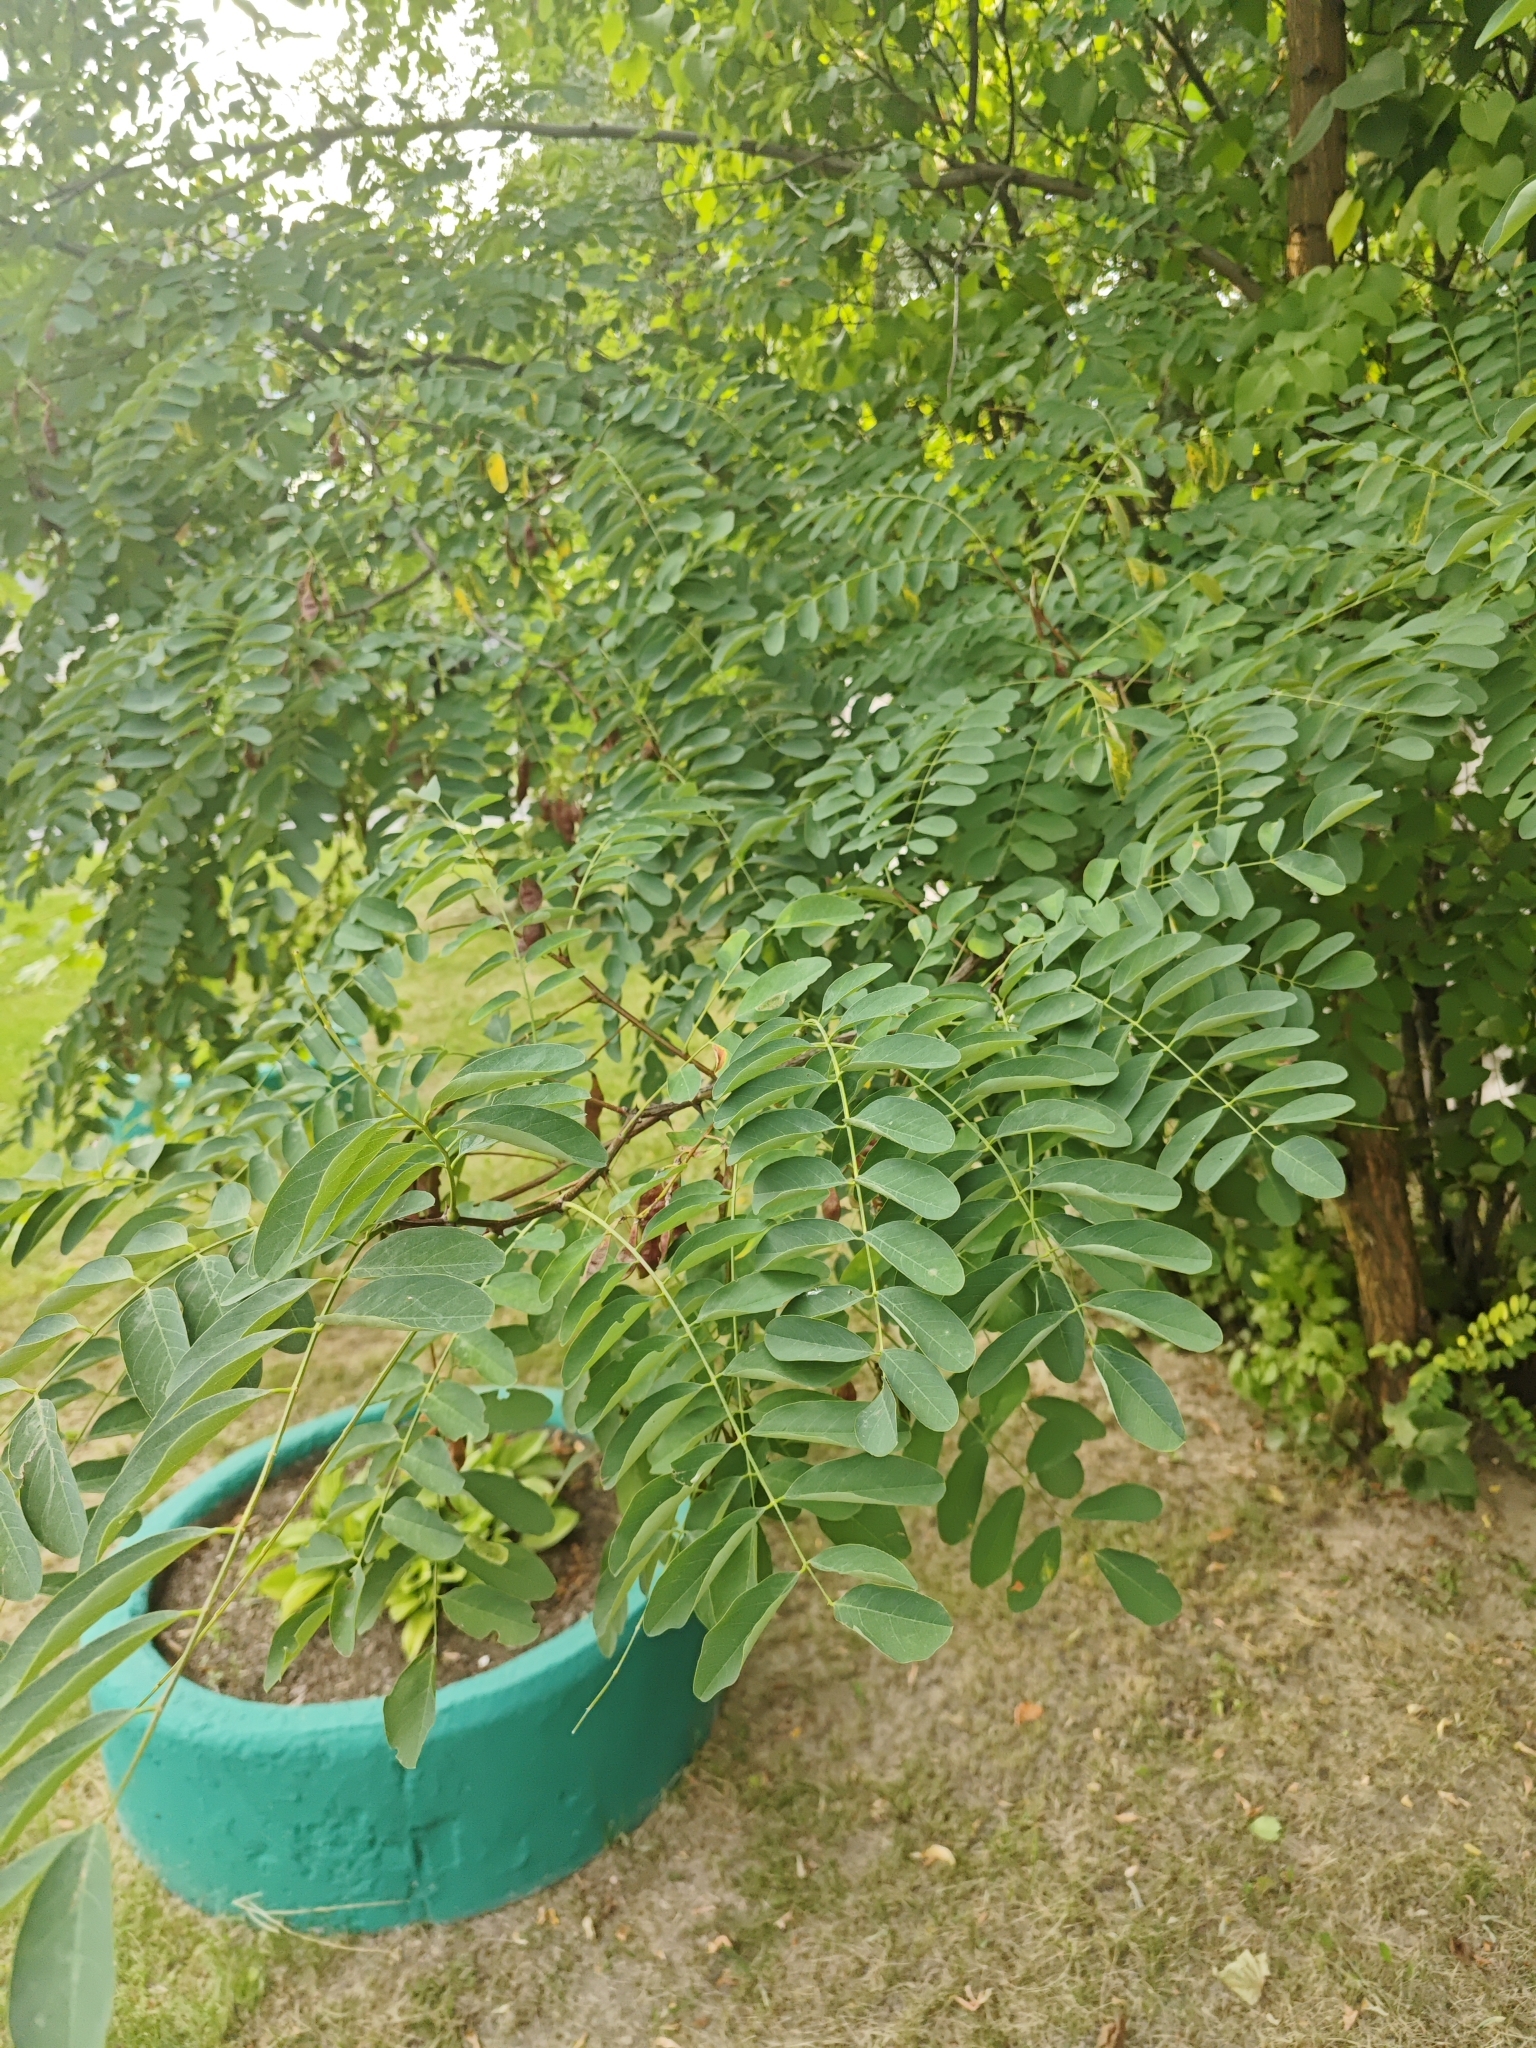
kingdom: Plantae
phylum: Tracheophyta
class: Magnoliopsida
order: Fabales
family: Fabaceae
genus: Robinia
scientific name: Robinia pseudoacacia
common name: Black locust
